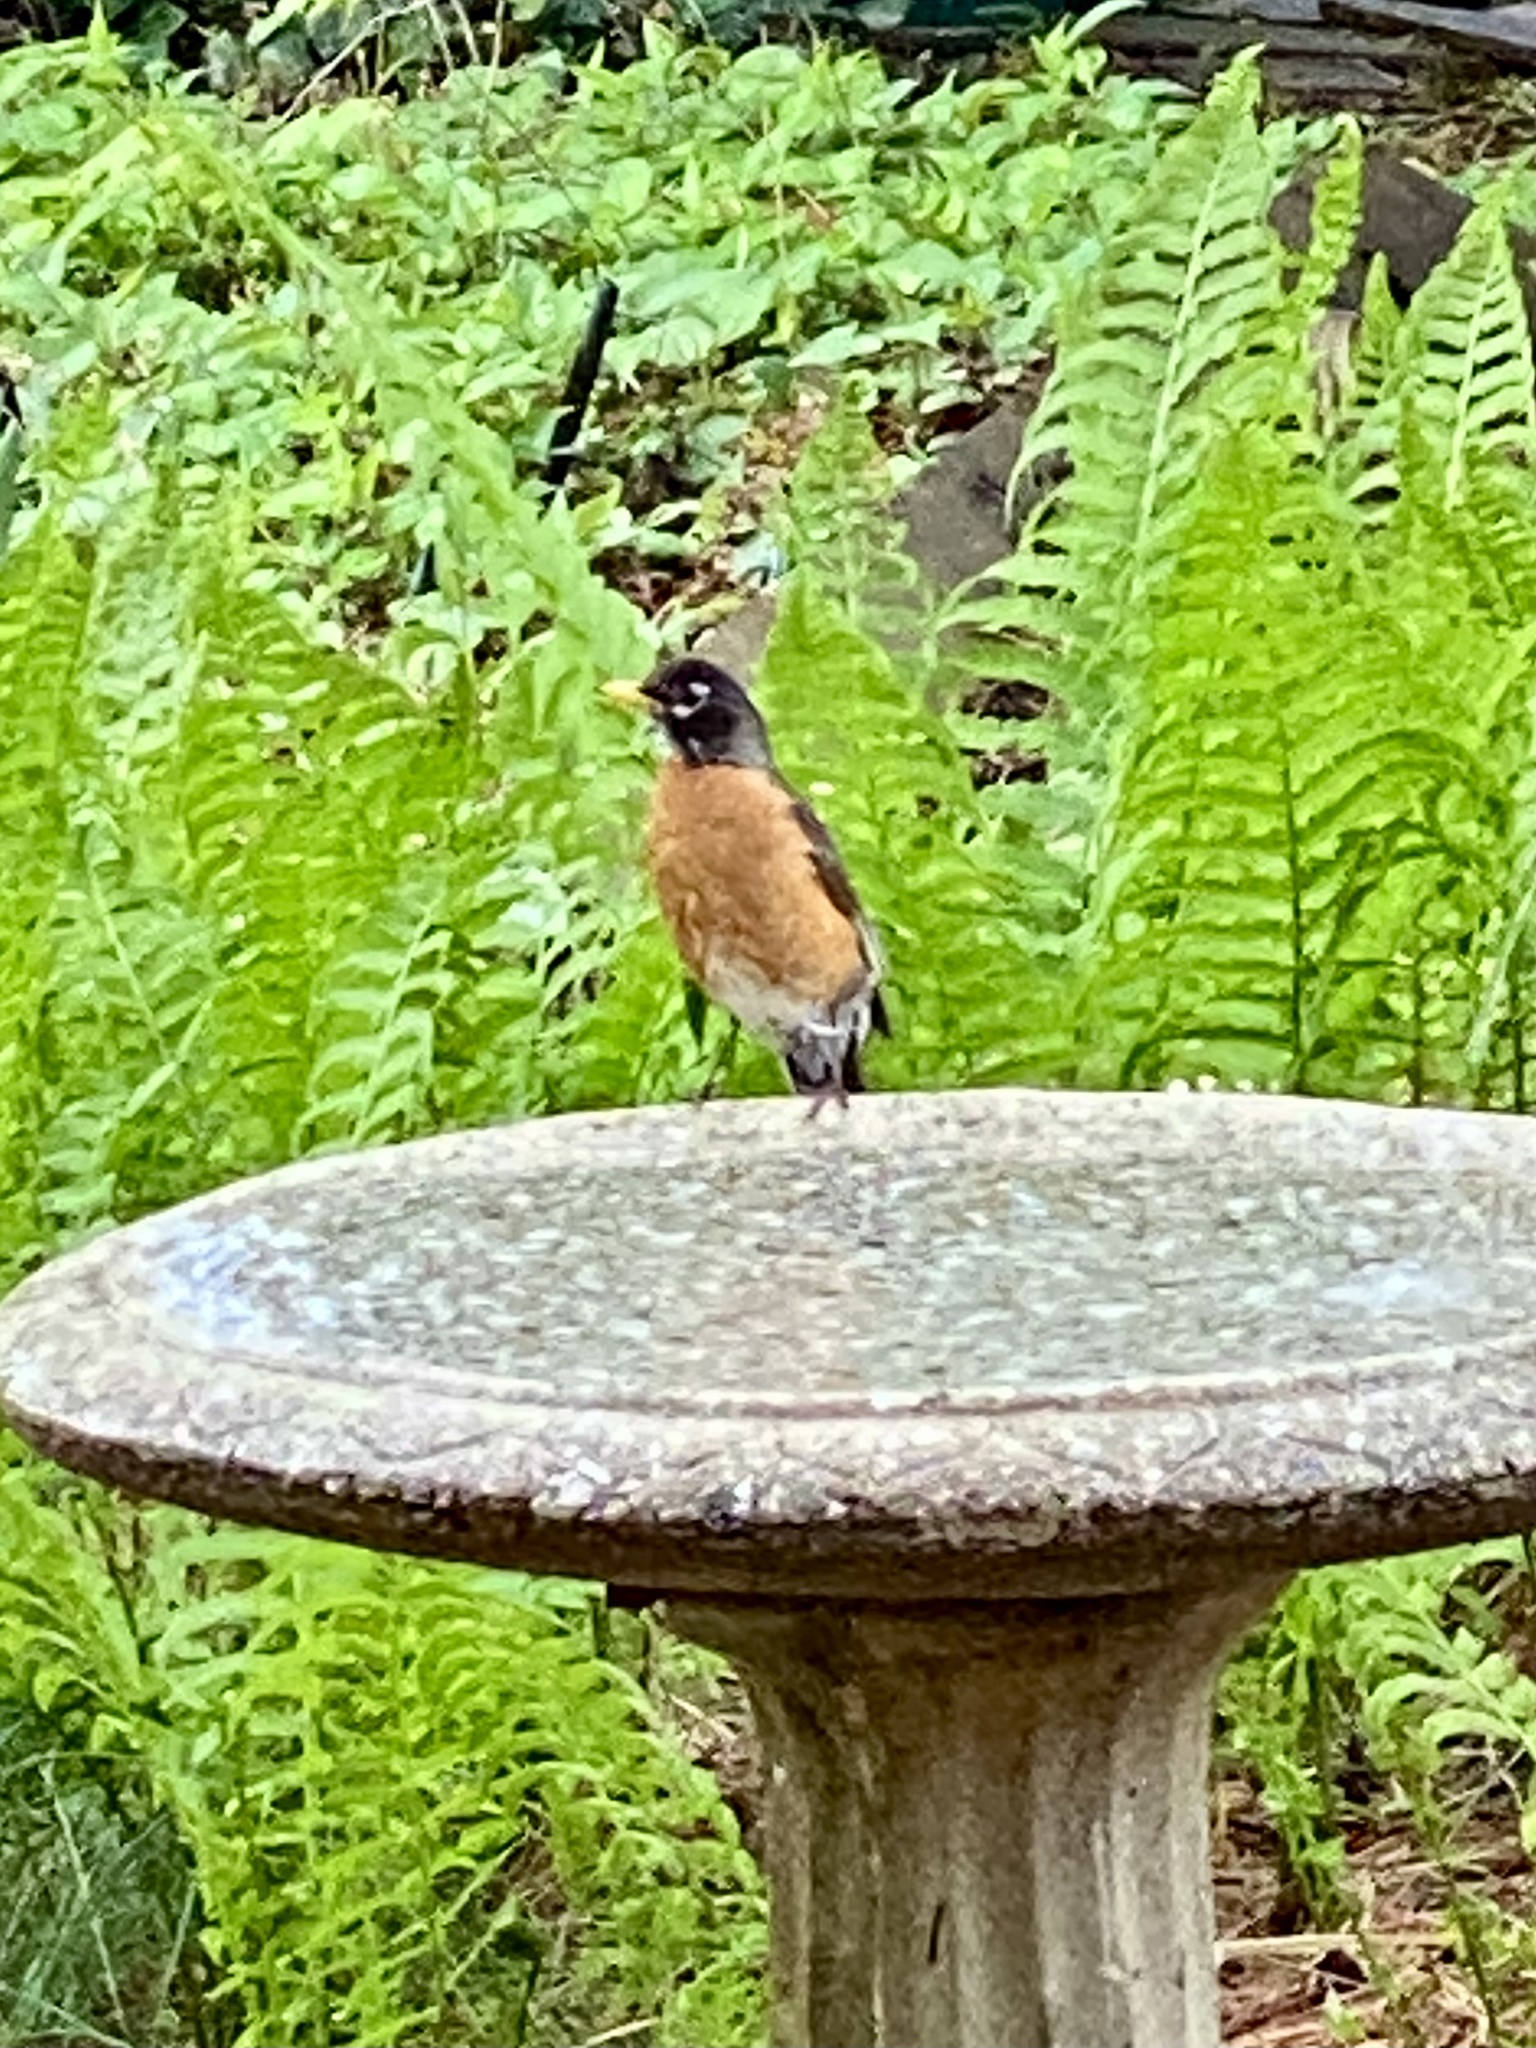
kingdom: Animalia
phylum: Chordata
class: Aves
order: Passeriformes
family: Turdidae
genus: Turdus
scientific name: Turdus migratorius
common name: American robin
